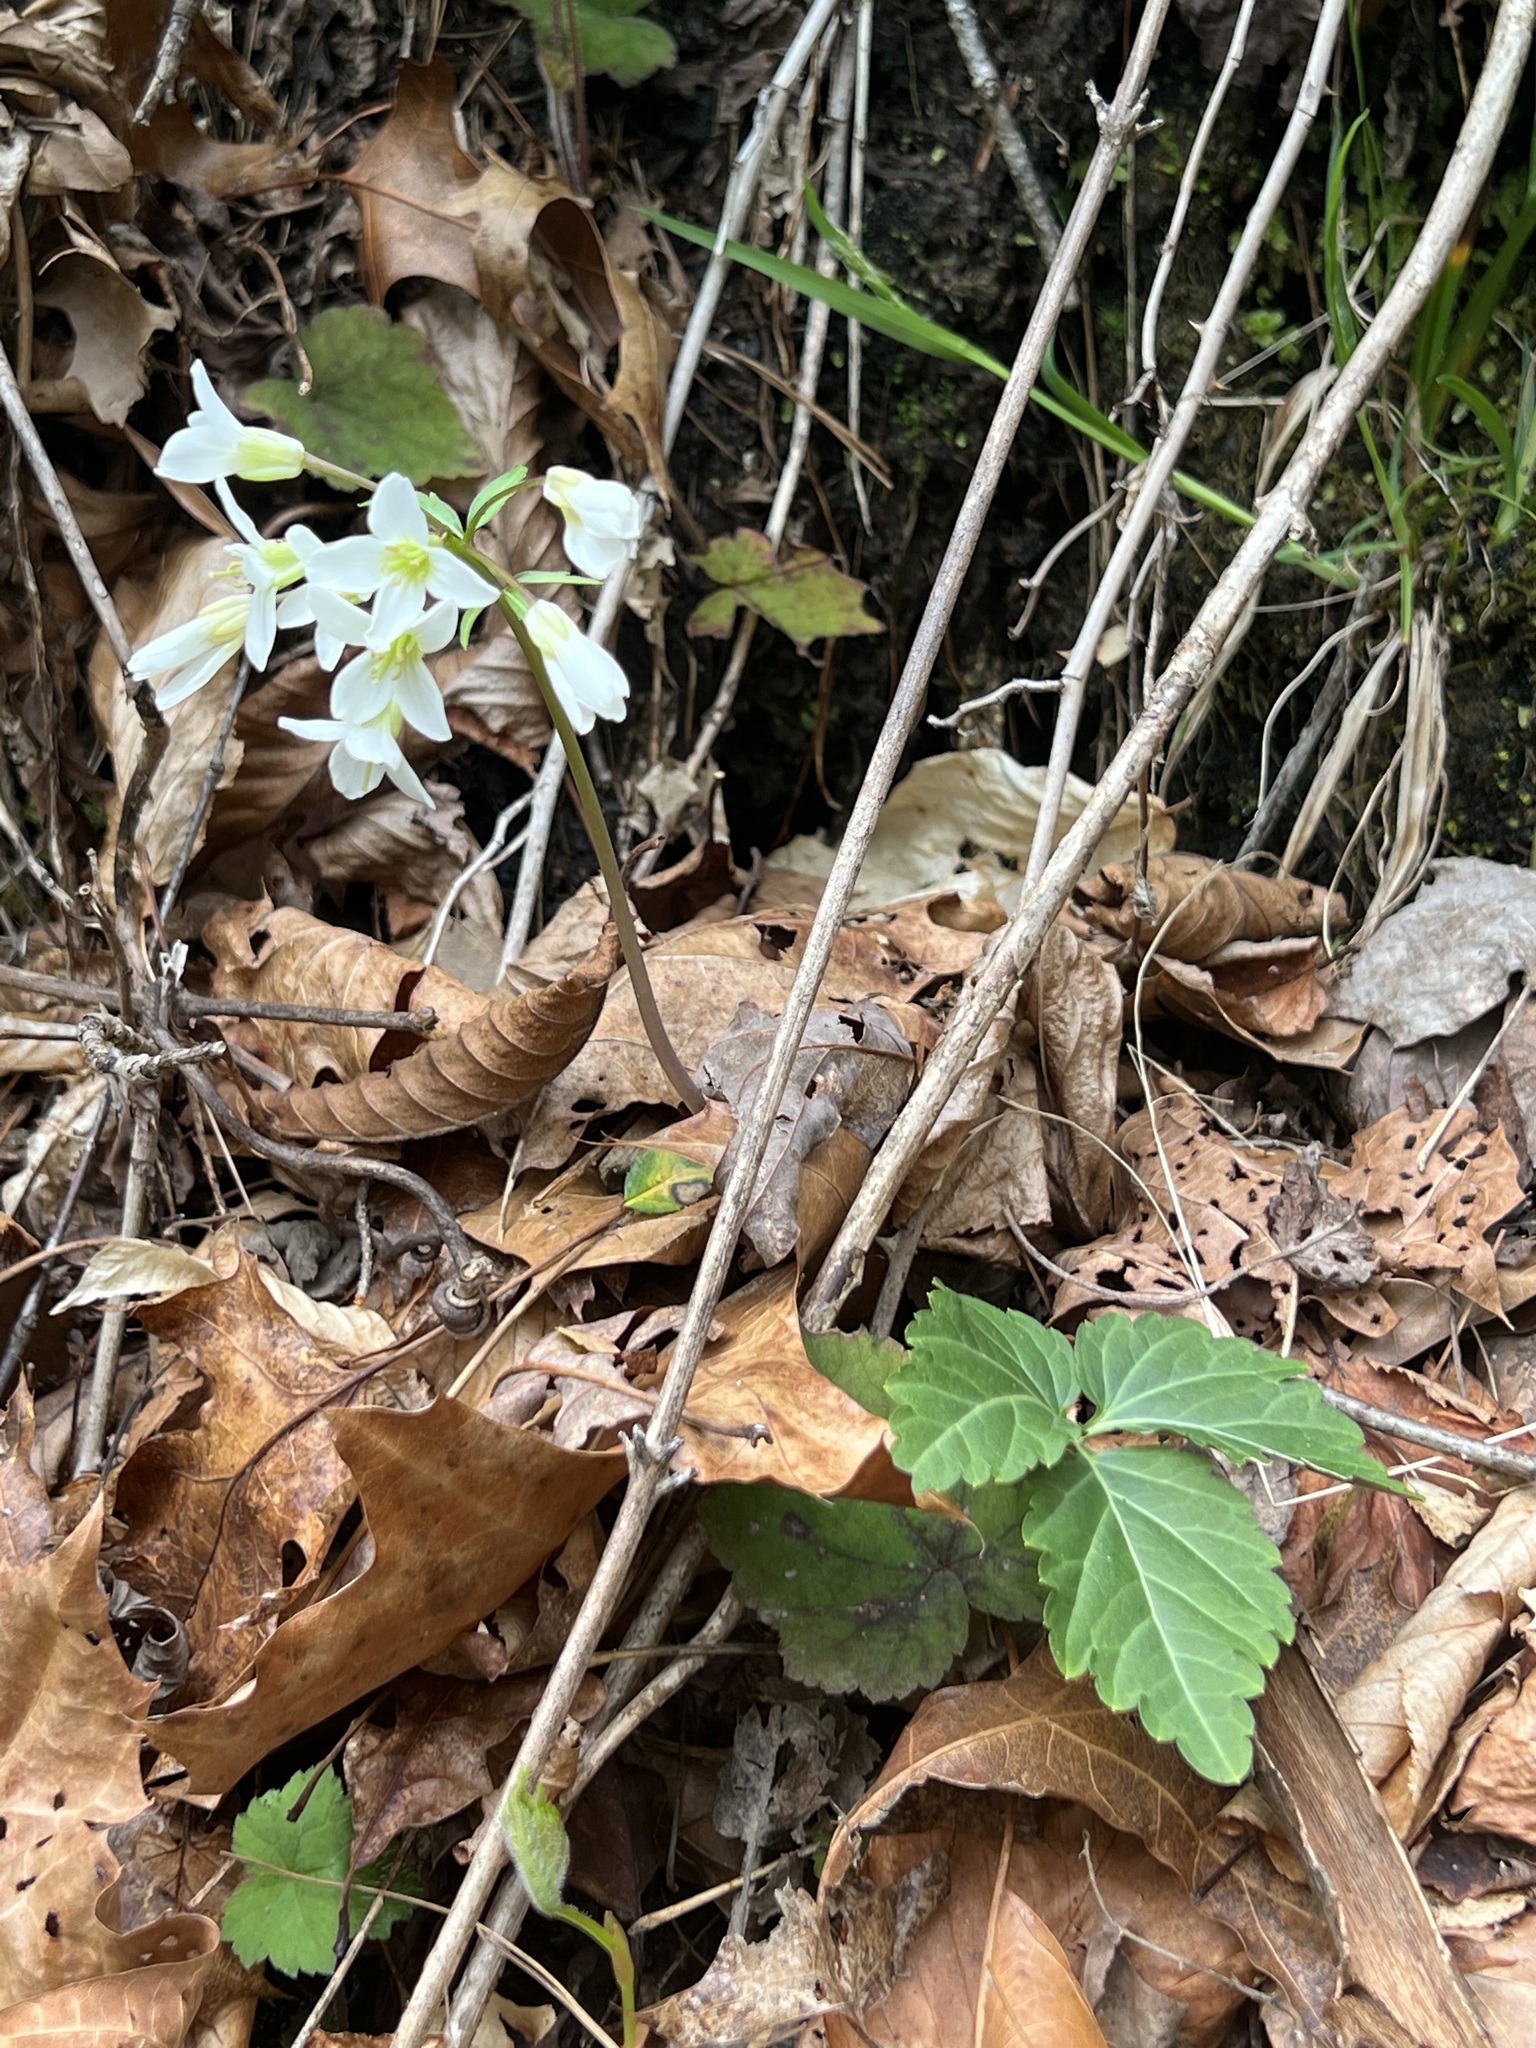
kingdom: Plantae
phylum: Tracheophyta
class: Magnoliopsida
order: Brassicales
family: Brassicaceae
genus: Cardamine
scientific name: Cardamine diphylla
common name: Broad-leaved toothwort
